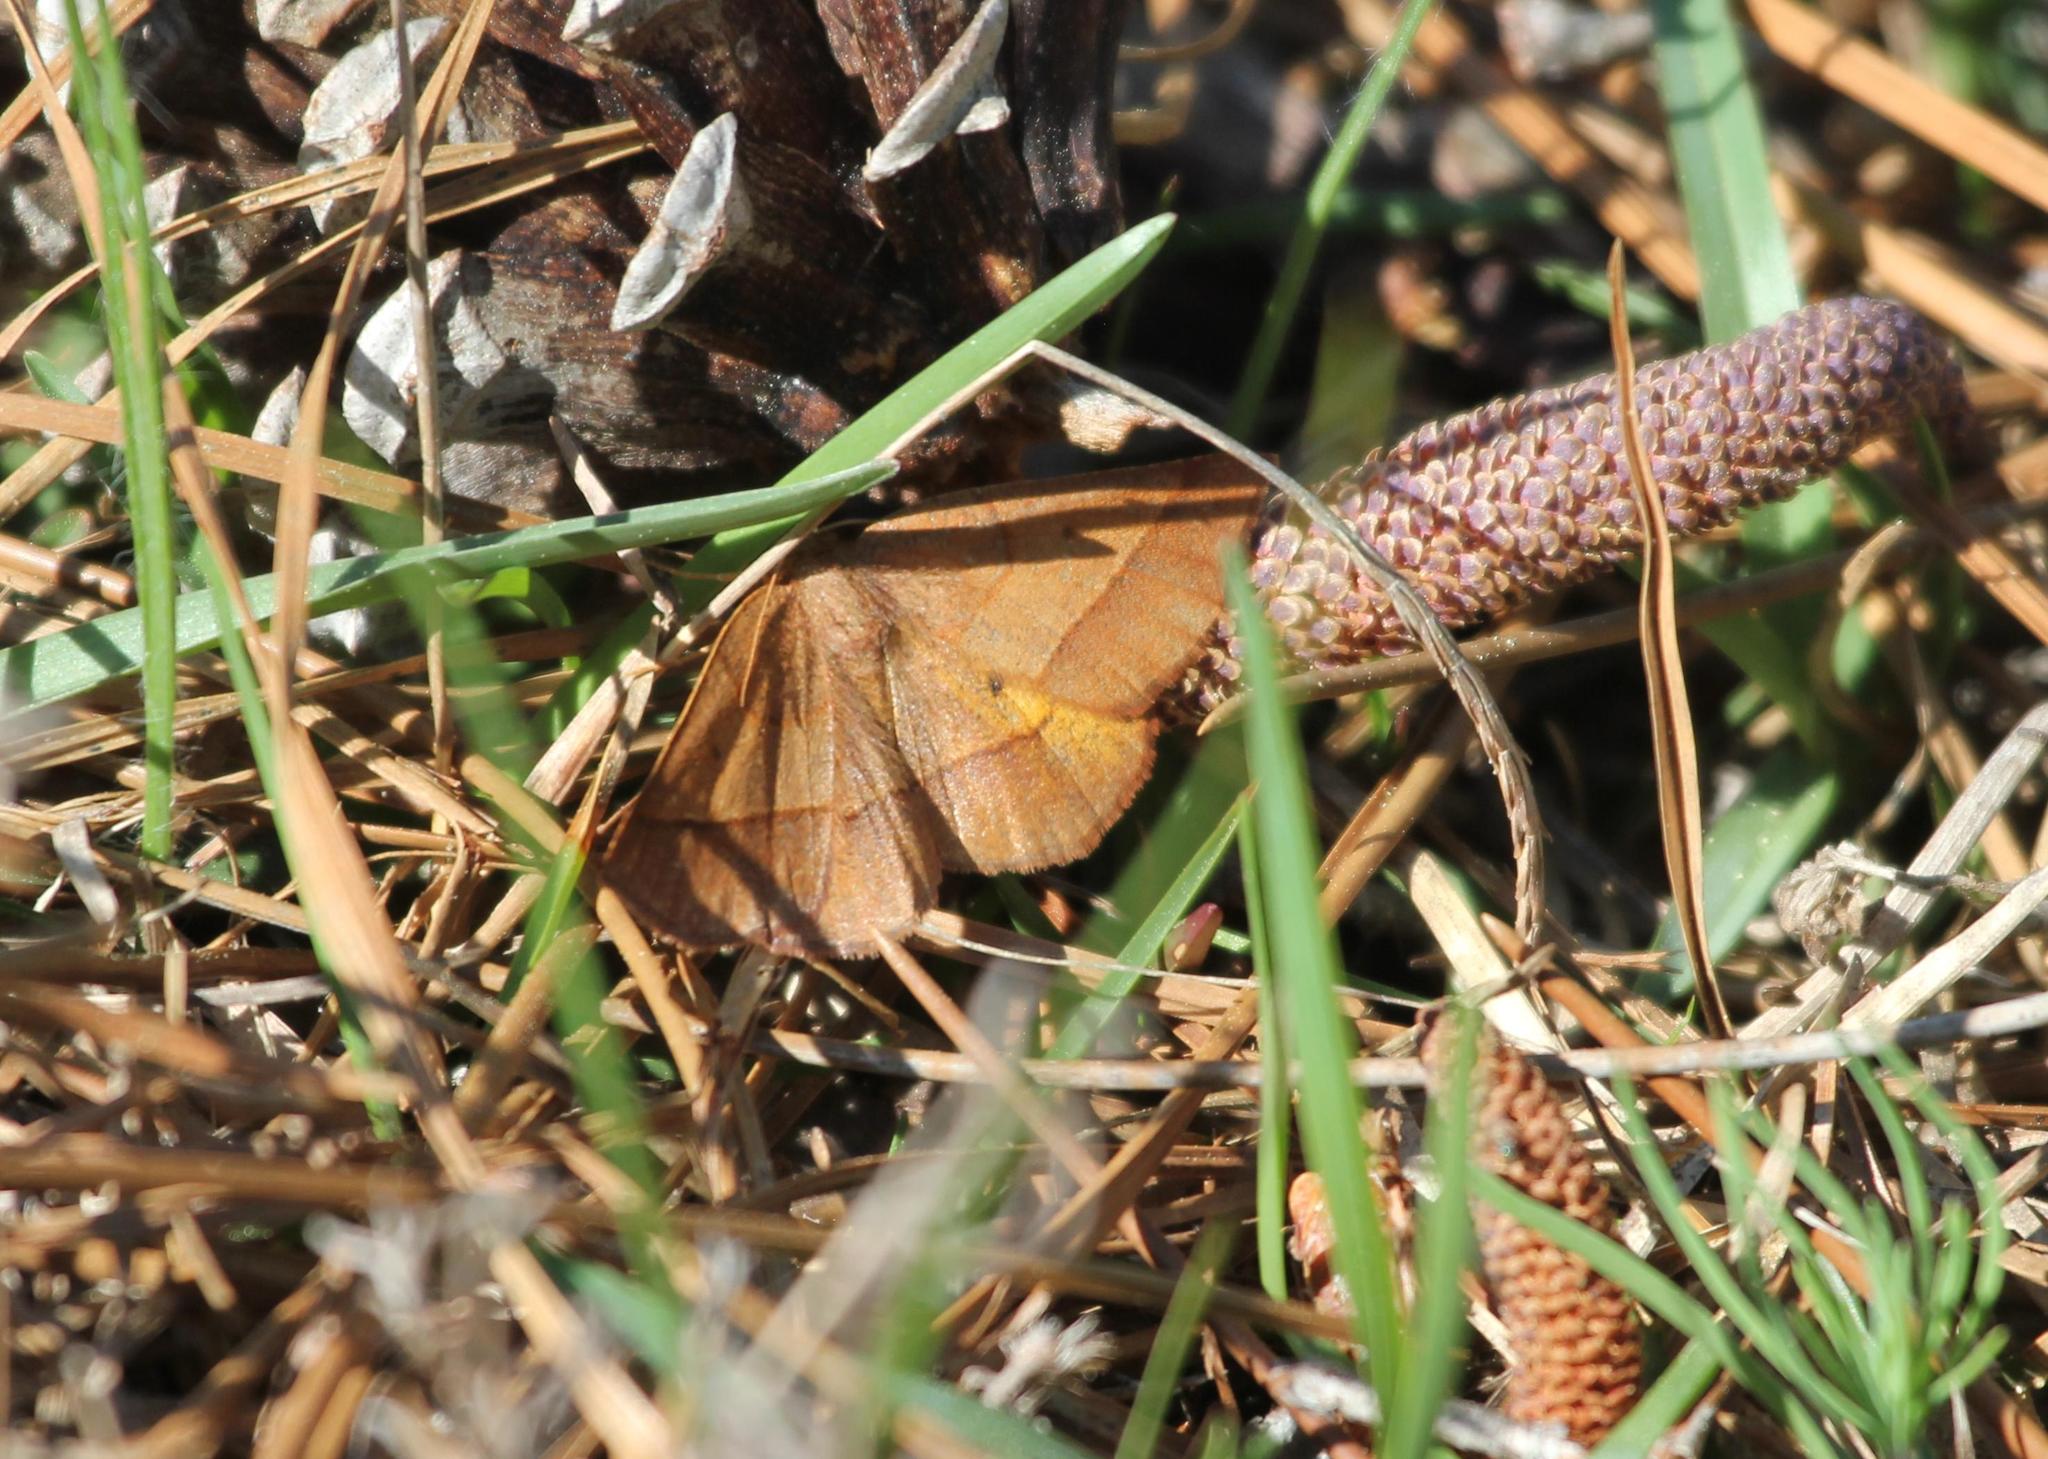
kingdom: Animalia
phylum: Arthropoda
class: Insecta
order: Lepidoptera
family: Geometridae
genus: Metarranthis
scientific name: Metarranthis obfirmaria
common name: Yellow-washed metarranthis
